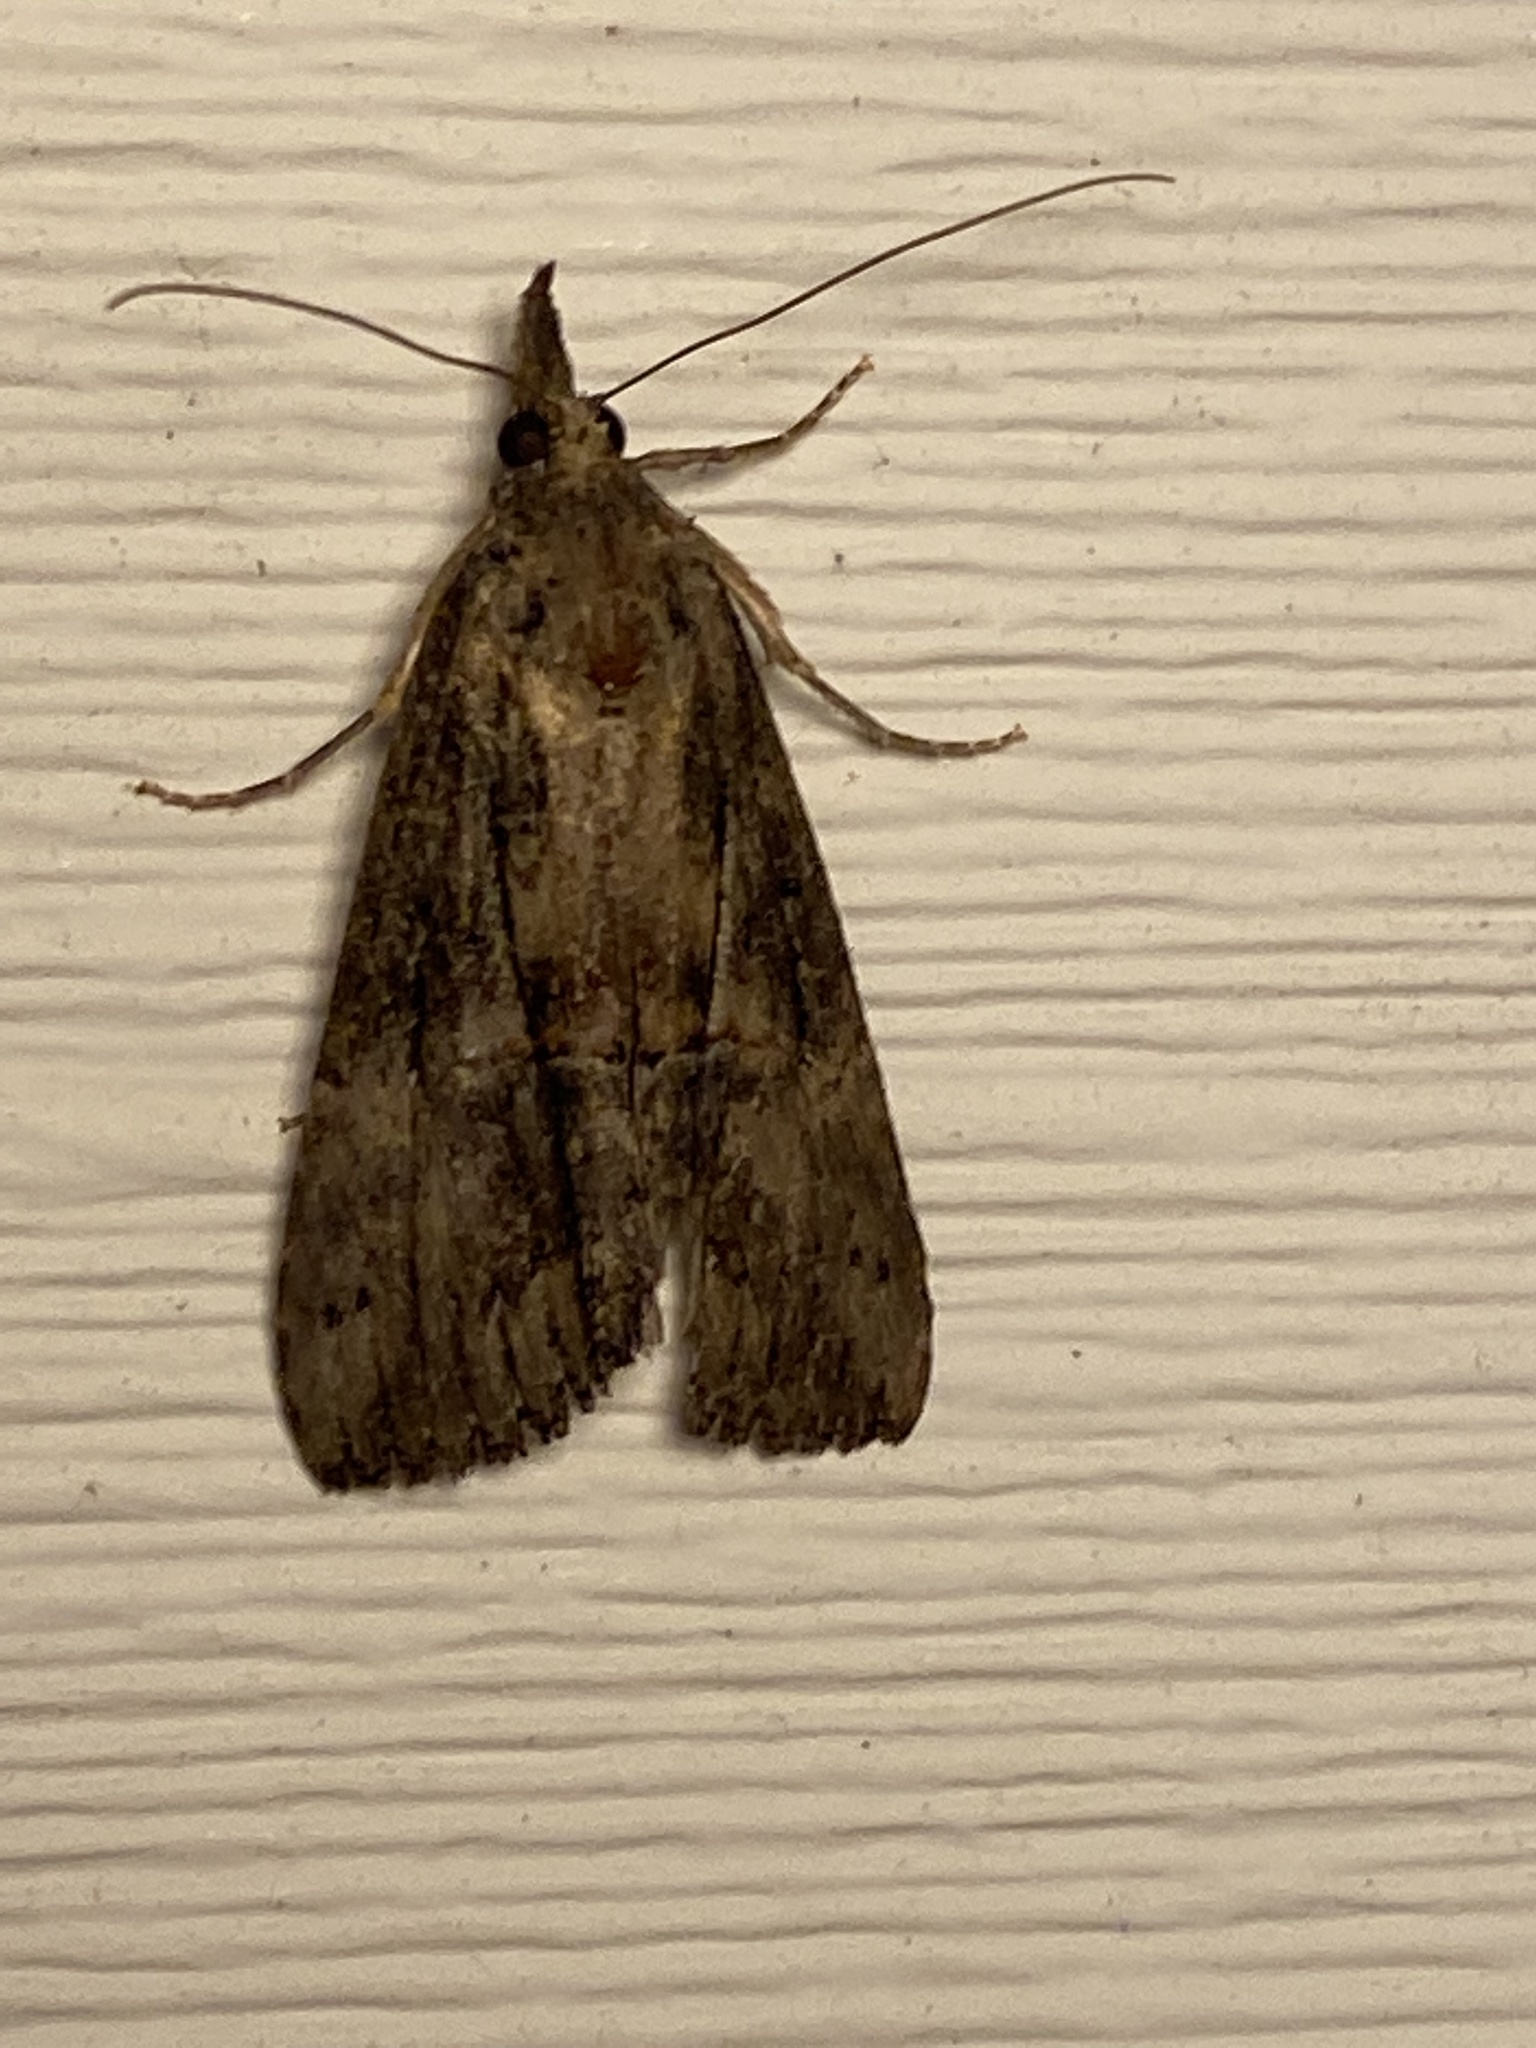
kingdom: Animalia
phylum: Arthropoda
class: Insecta
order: Lepidoptera
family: Erebidae
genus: Hypena
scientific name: Hypena scabra
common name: Green cloverworm
